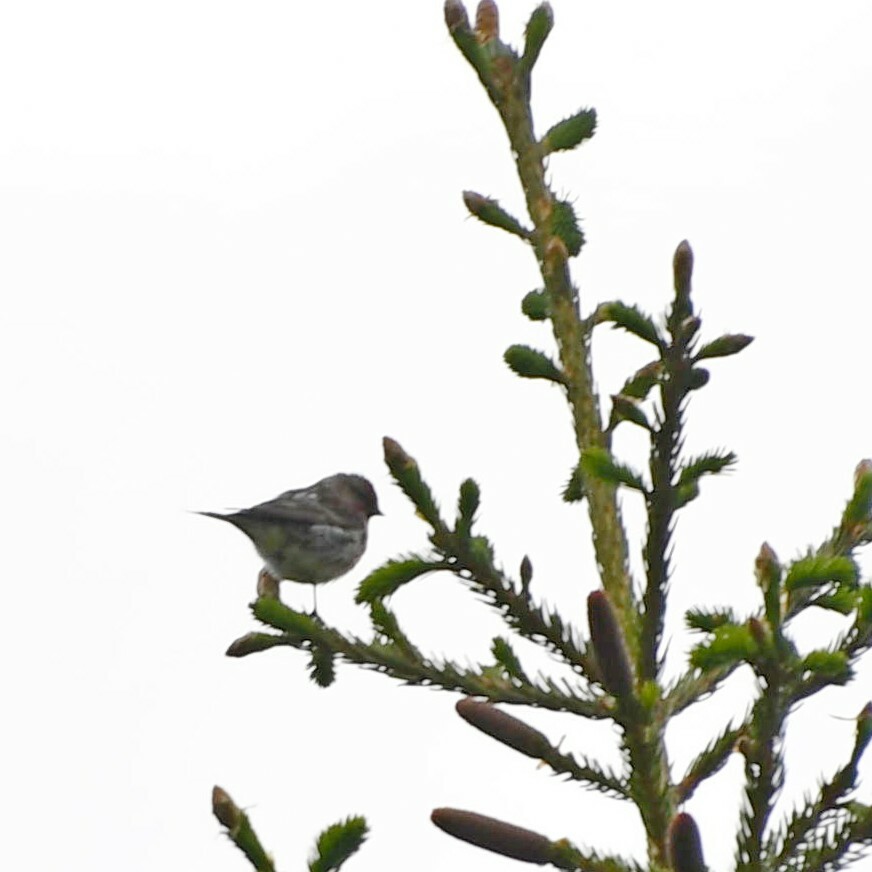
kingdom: Animalia
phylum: Chordata
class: Aves
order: Passeriformes
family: Fringillidae
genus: Acanthis
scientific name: Acanthis flammea
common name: Common redpoll
